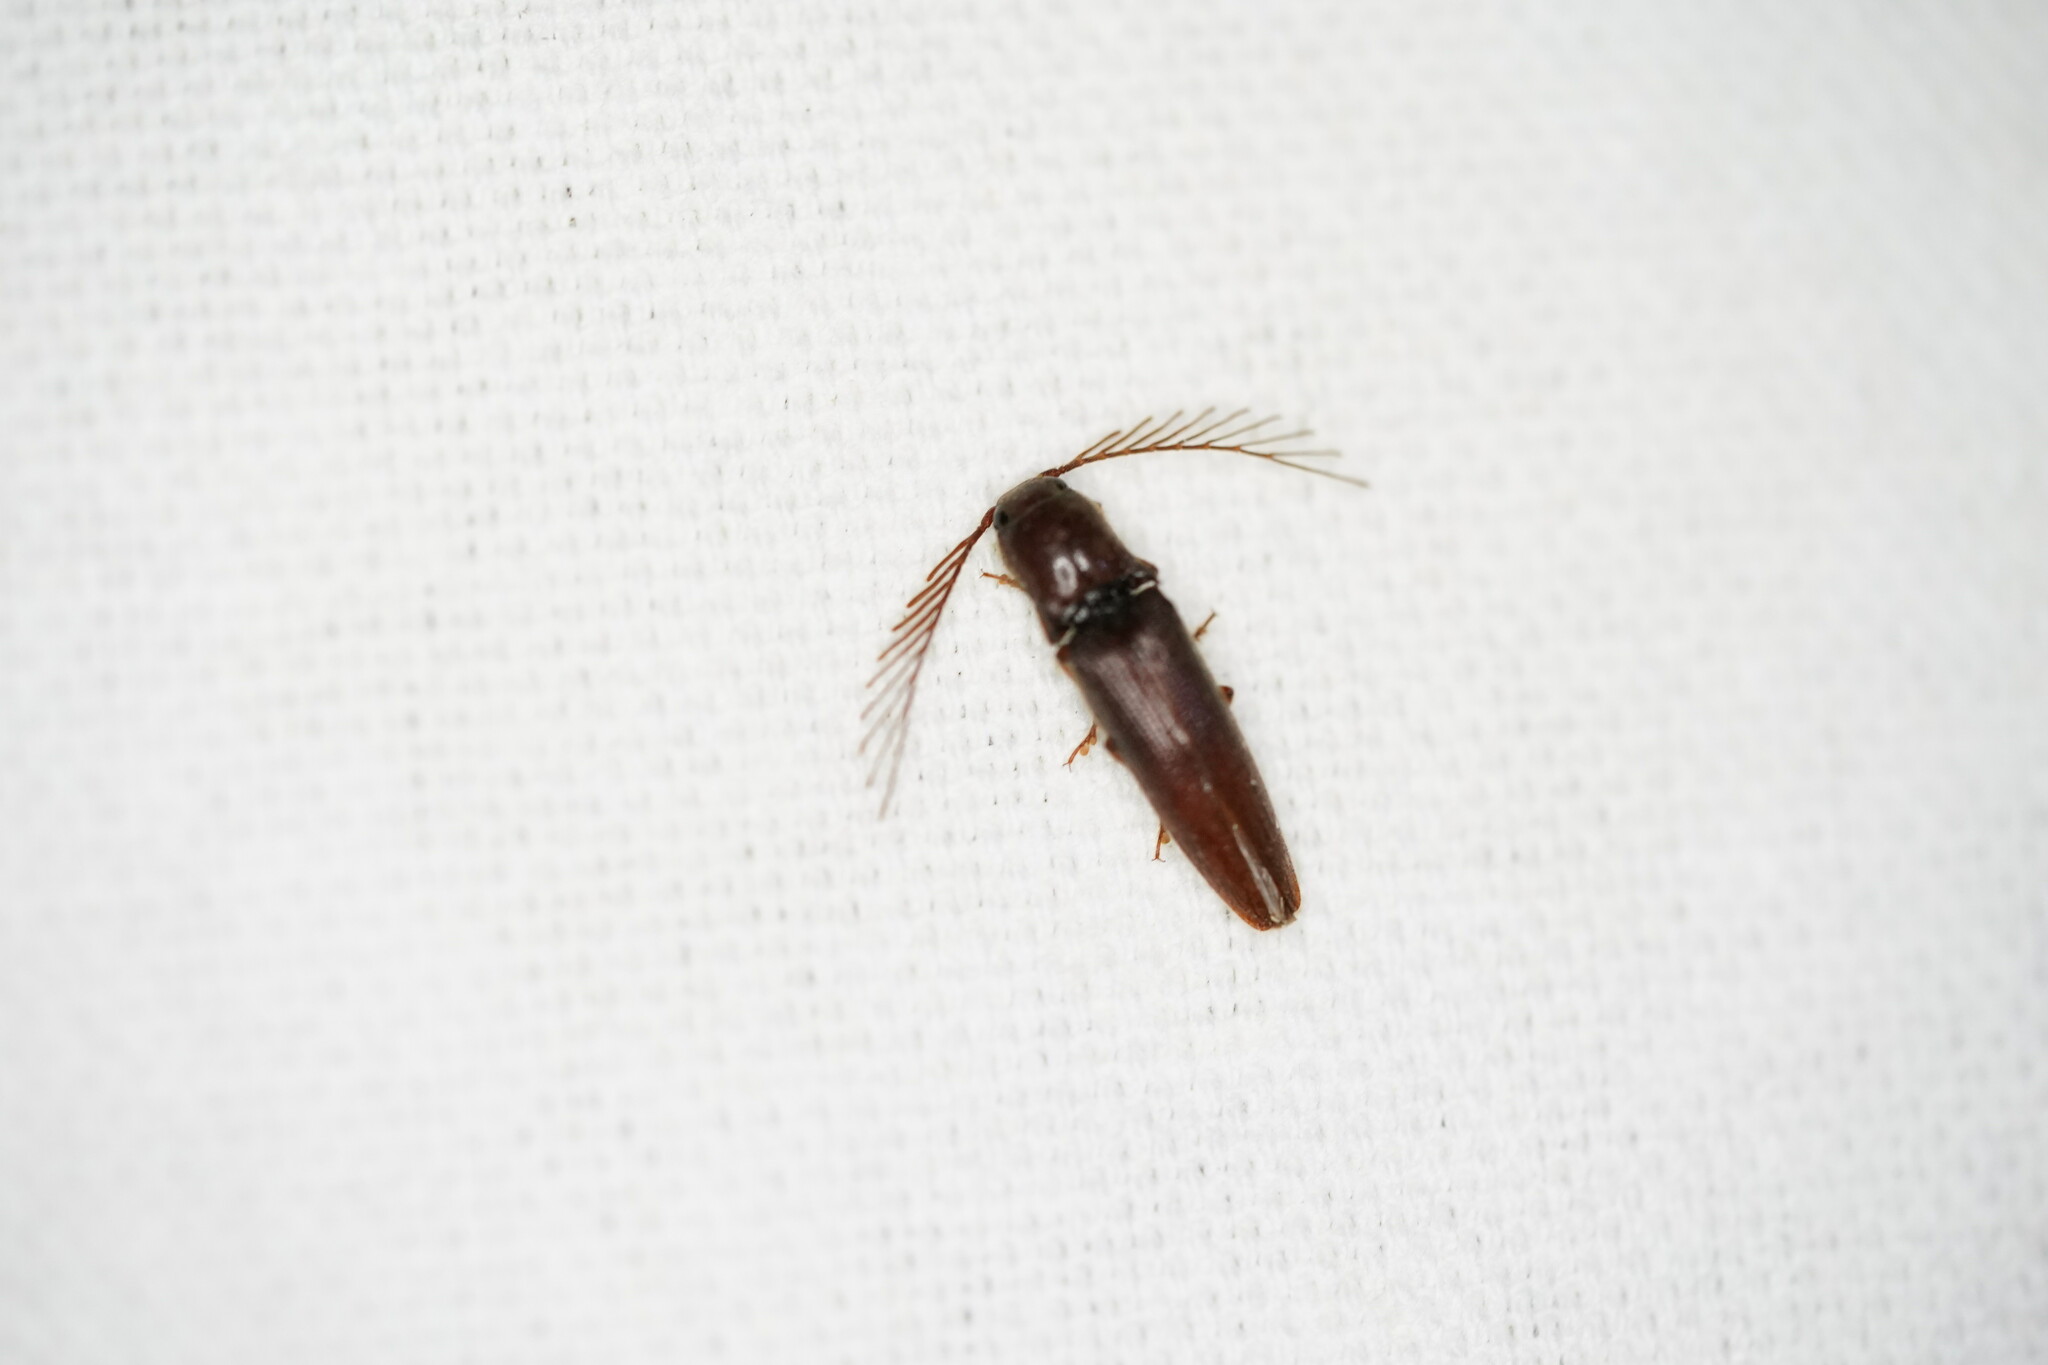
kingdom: Animalia
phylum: Arthropoda
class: Insecta
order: Coleoptera
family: Elateridae
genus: Dicrepidius
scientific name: Dicrepidius palmatus
